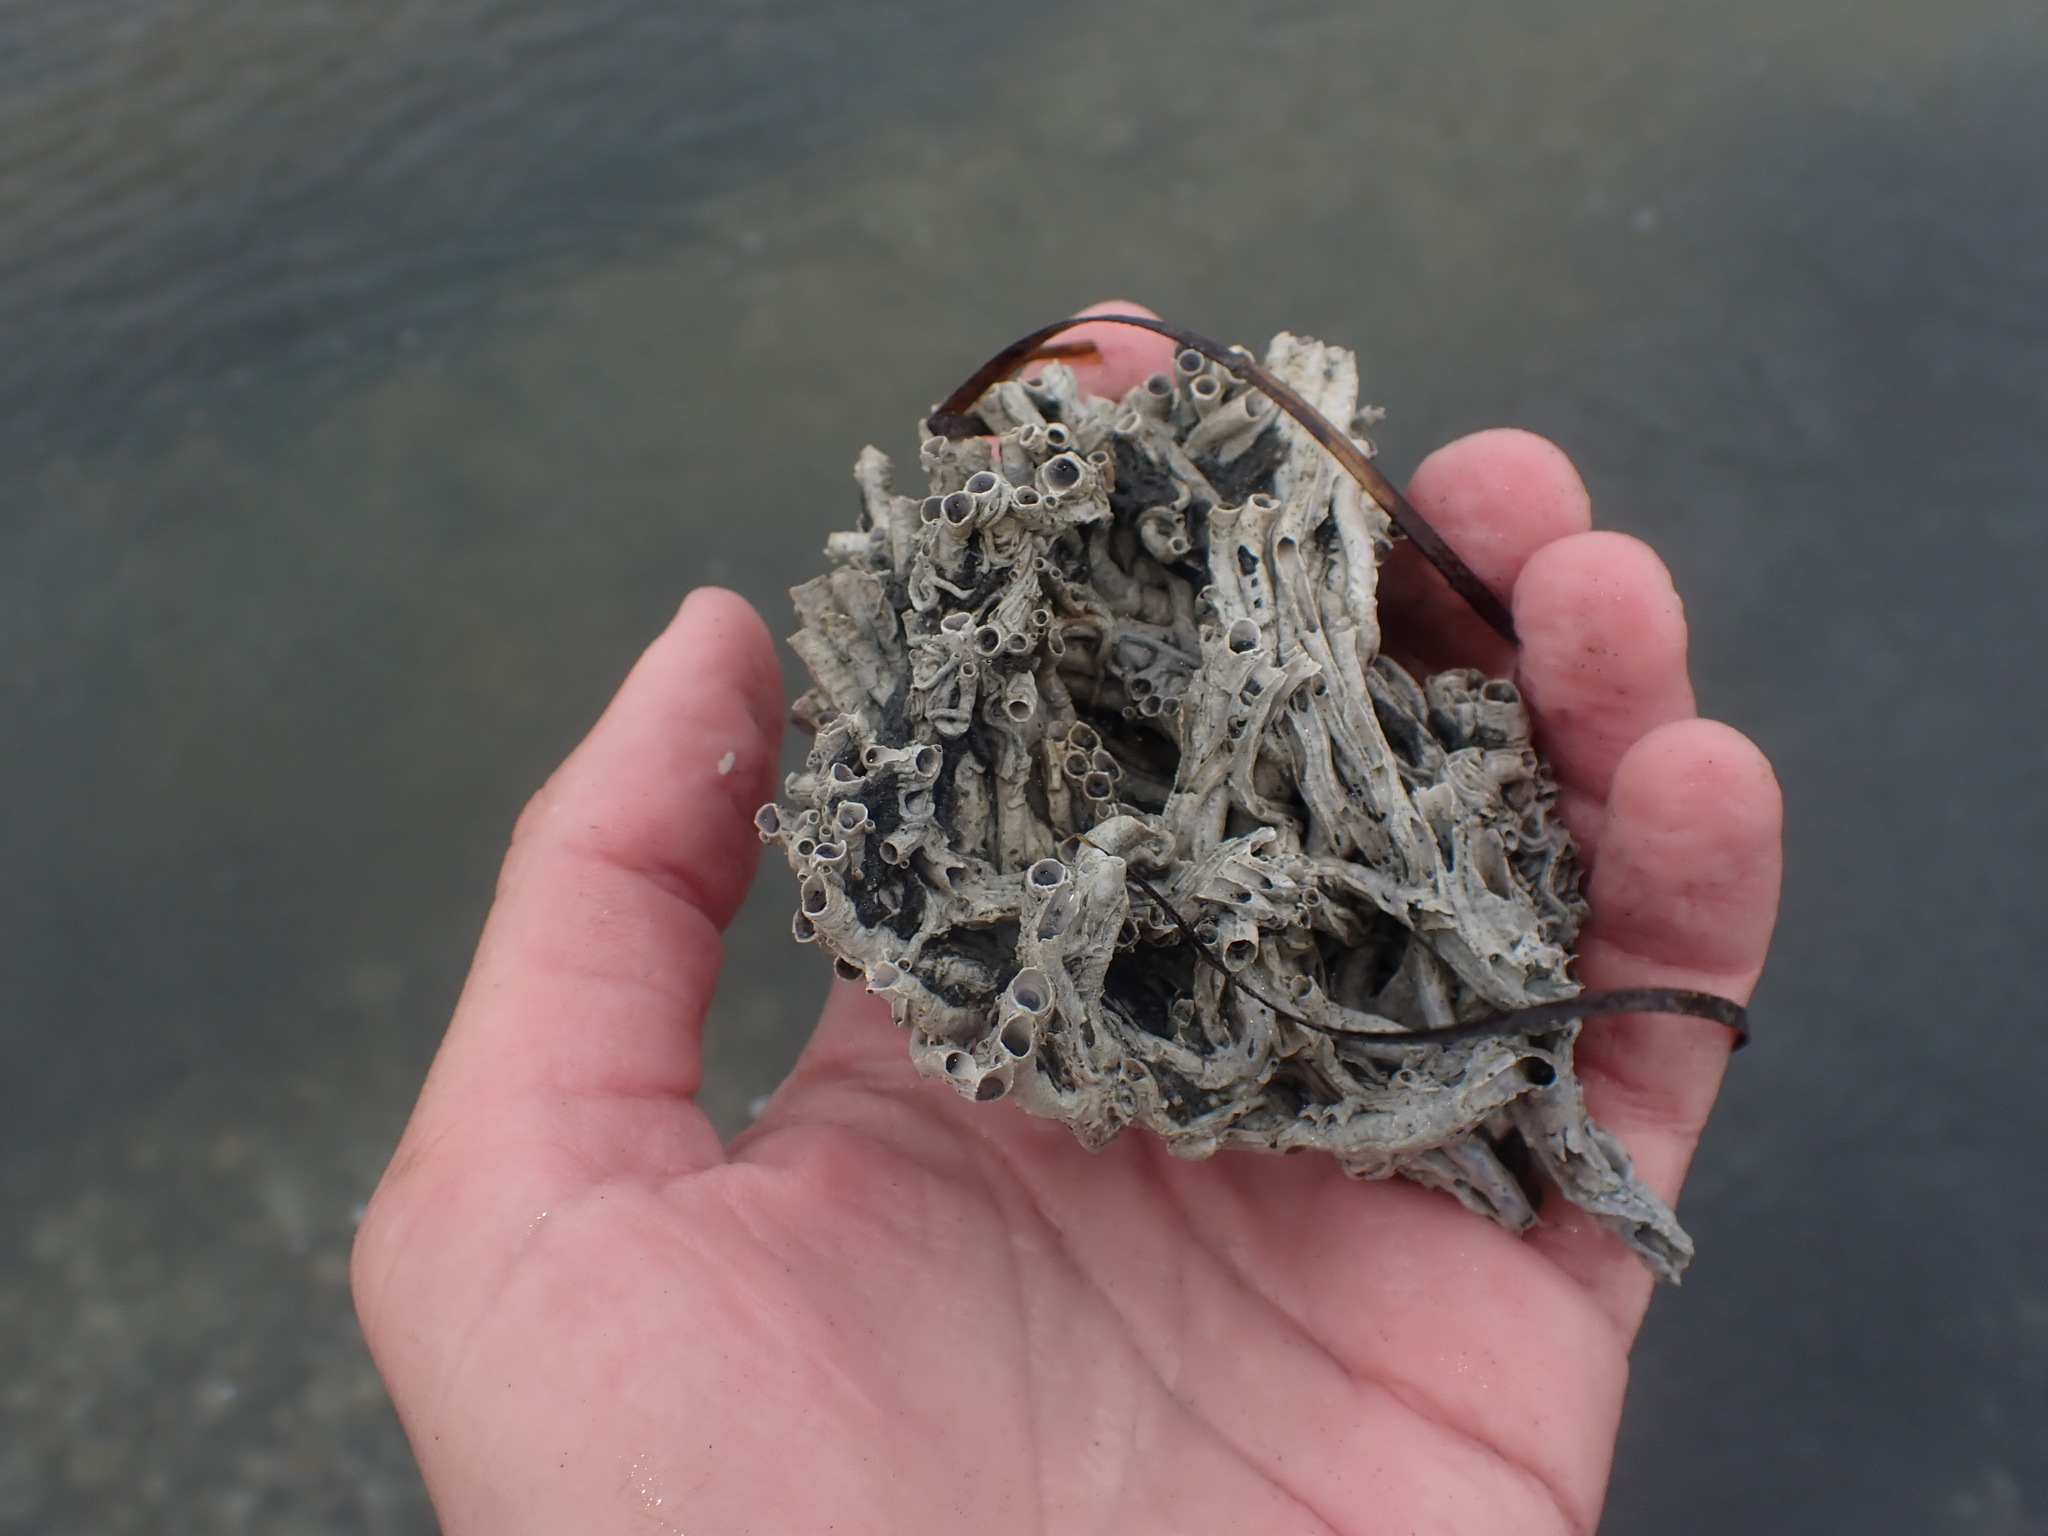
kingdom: Animalia
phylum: Annelida
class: Polychaeta
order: Sabellida
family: Serpulidae
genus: Spirobranchus
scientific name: Spirobranchus cariniferus
